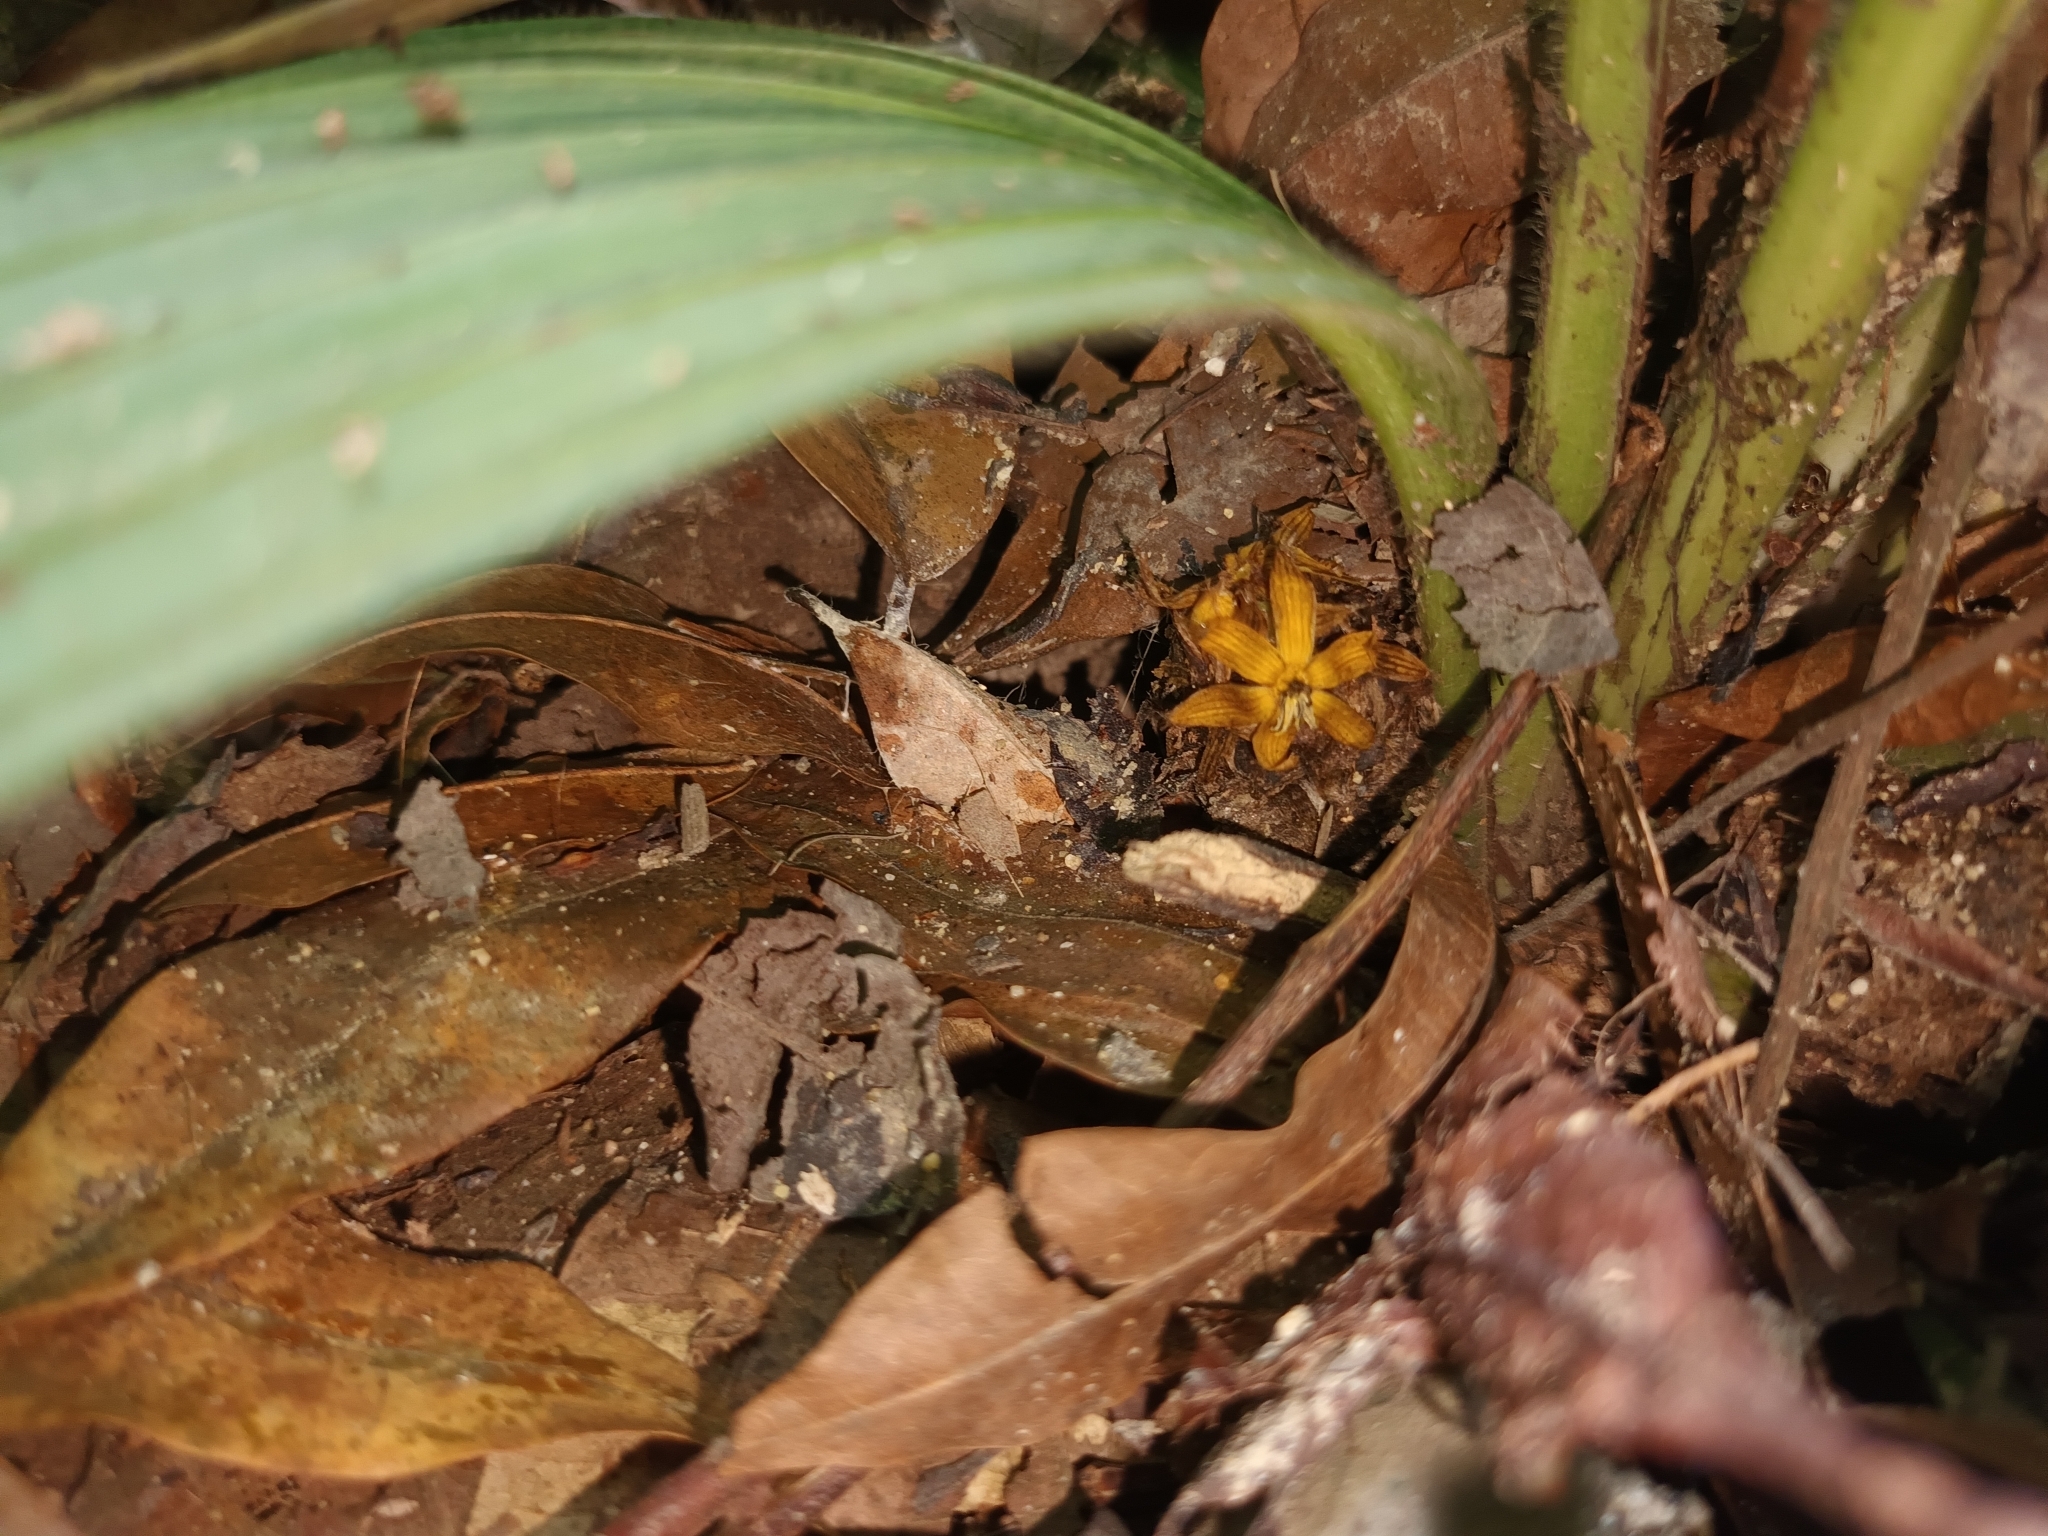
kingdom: Plantae
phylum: Tracheophyta
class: Liliopsida
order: Asparagales
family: Hypoxidaceae
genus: Curculigo
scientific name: Curculigo latifolia
